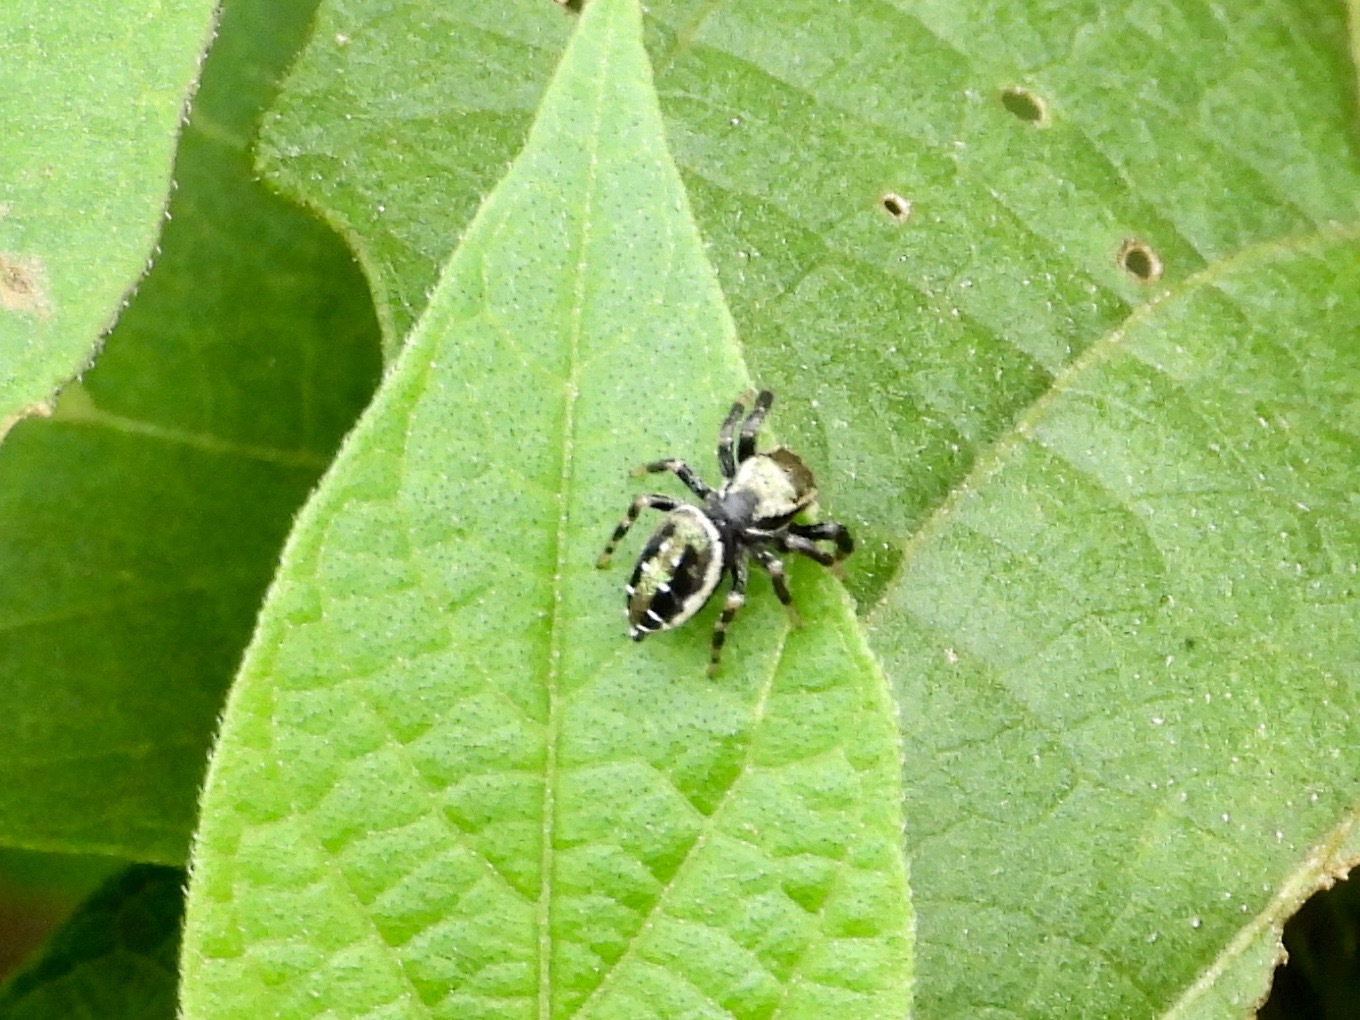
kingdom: Animalia
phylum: Arthropoda
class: Arachnida
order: Araneae
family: Salticidae
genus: Paraphidippus
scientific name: Paraphidippus aurantius
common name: Jumping spiders
